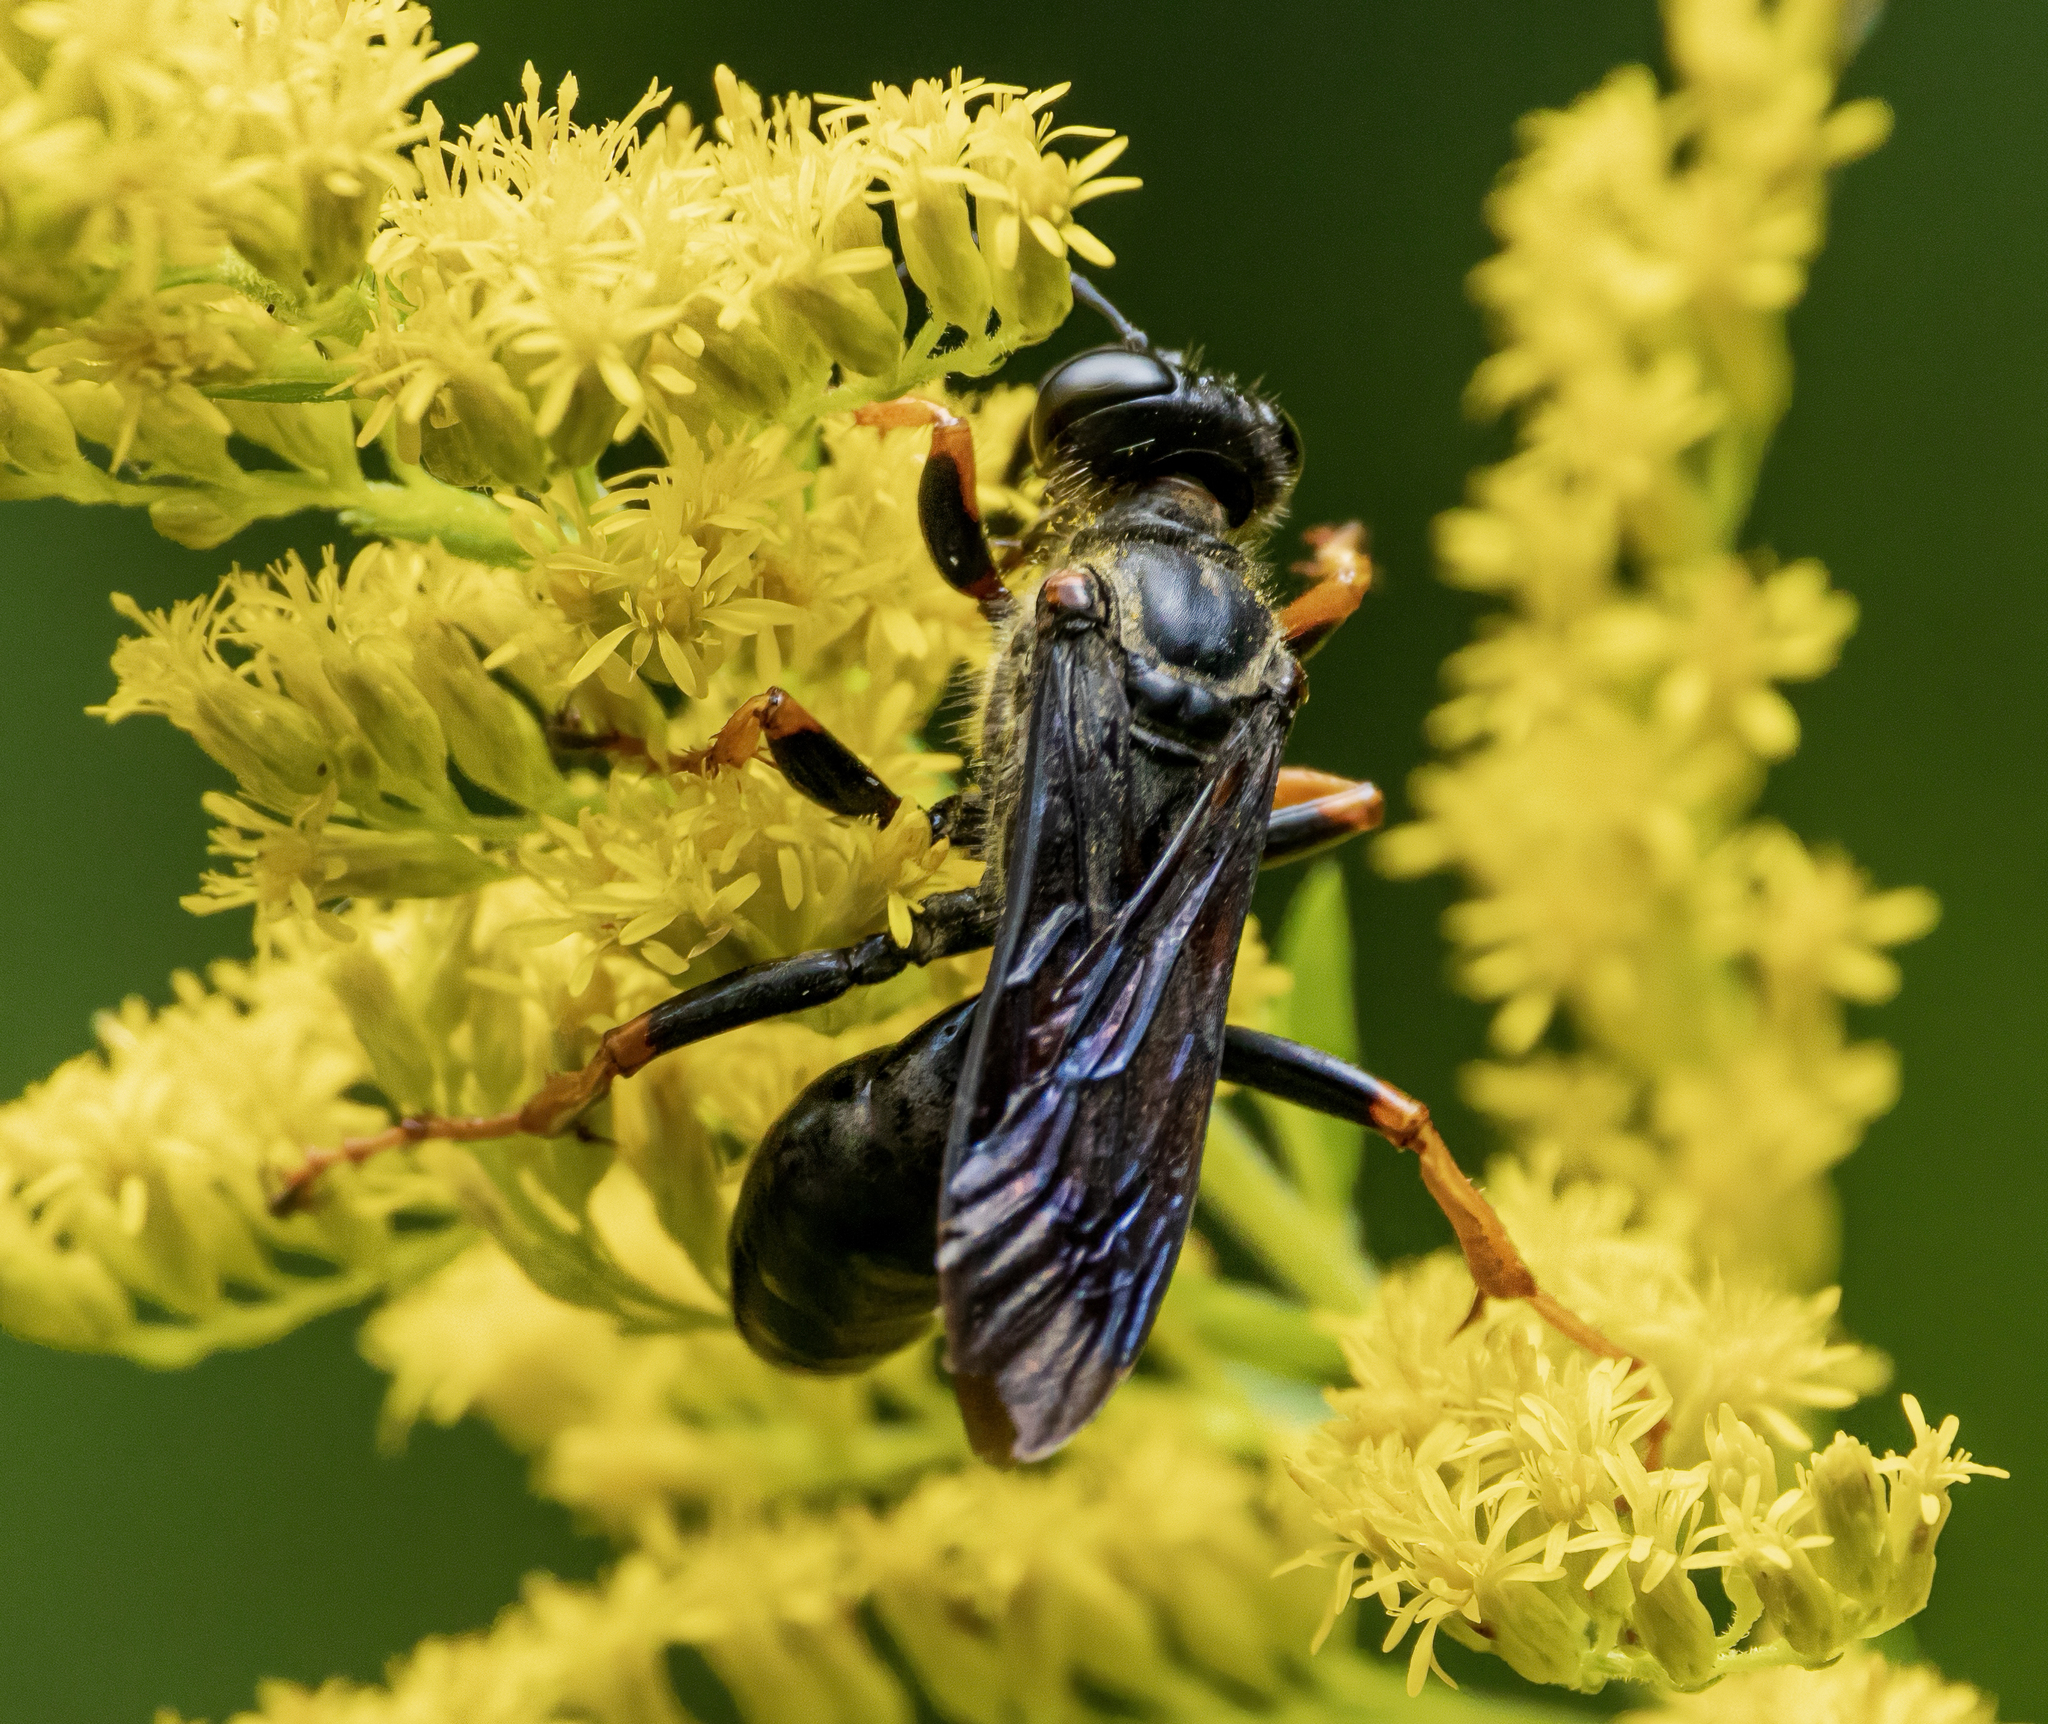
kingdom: Animalia
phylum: Arthropoda
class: Insecta
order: Hymenoptera
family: Sphecidae
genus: Sphex
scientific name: Sphex nudus
